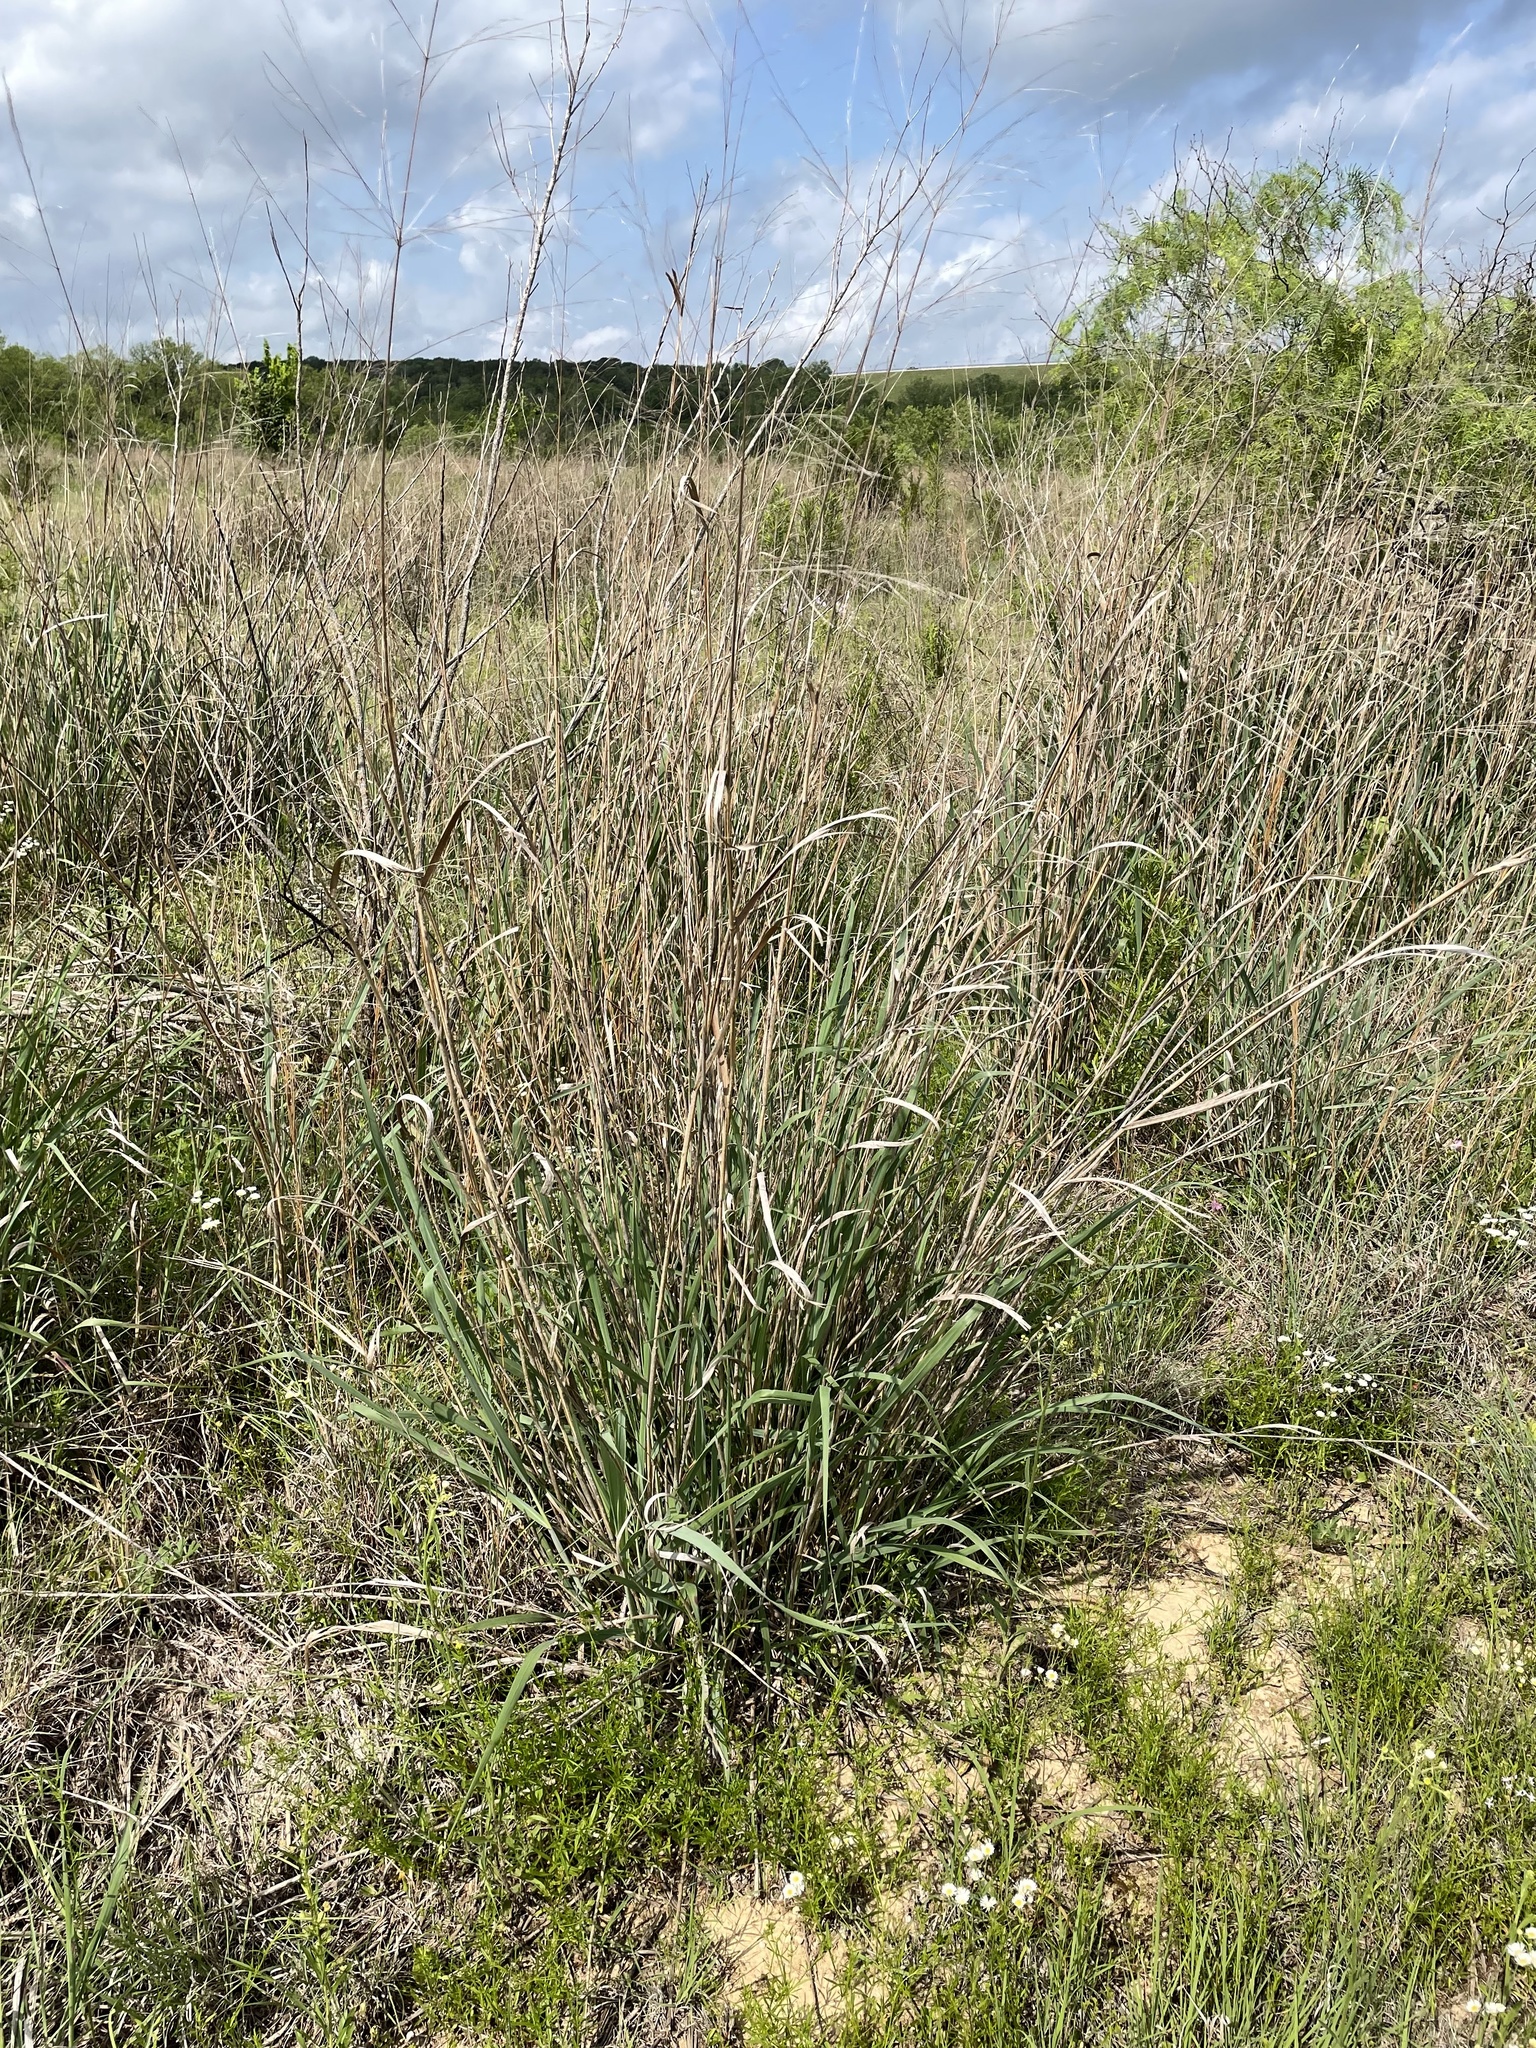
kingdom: Plantae
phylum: Tracheophyta
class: Liliopsida
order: Poales
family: Poaceae
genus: Panicum
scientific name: Panicum virgatum
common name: Switchgrass
